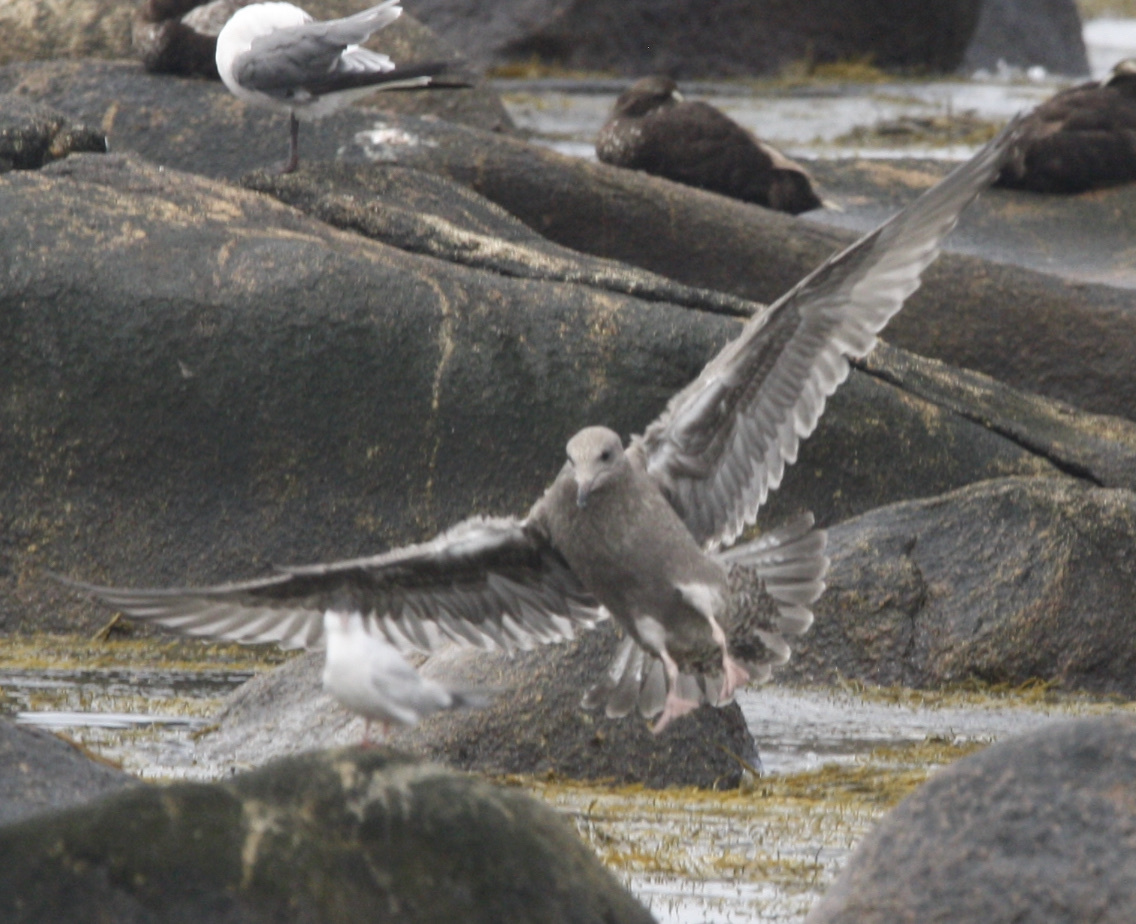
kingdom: Animalia
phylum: Chordata
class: Aves
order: Charadriiformes
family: Laridae
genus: Larus
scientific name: Larus argentatus
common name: Herring gull
